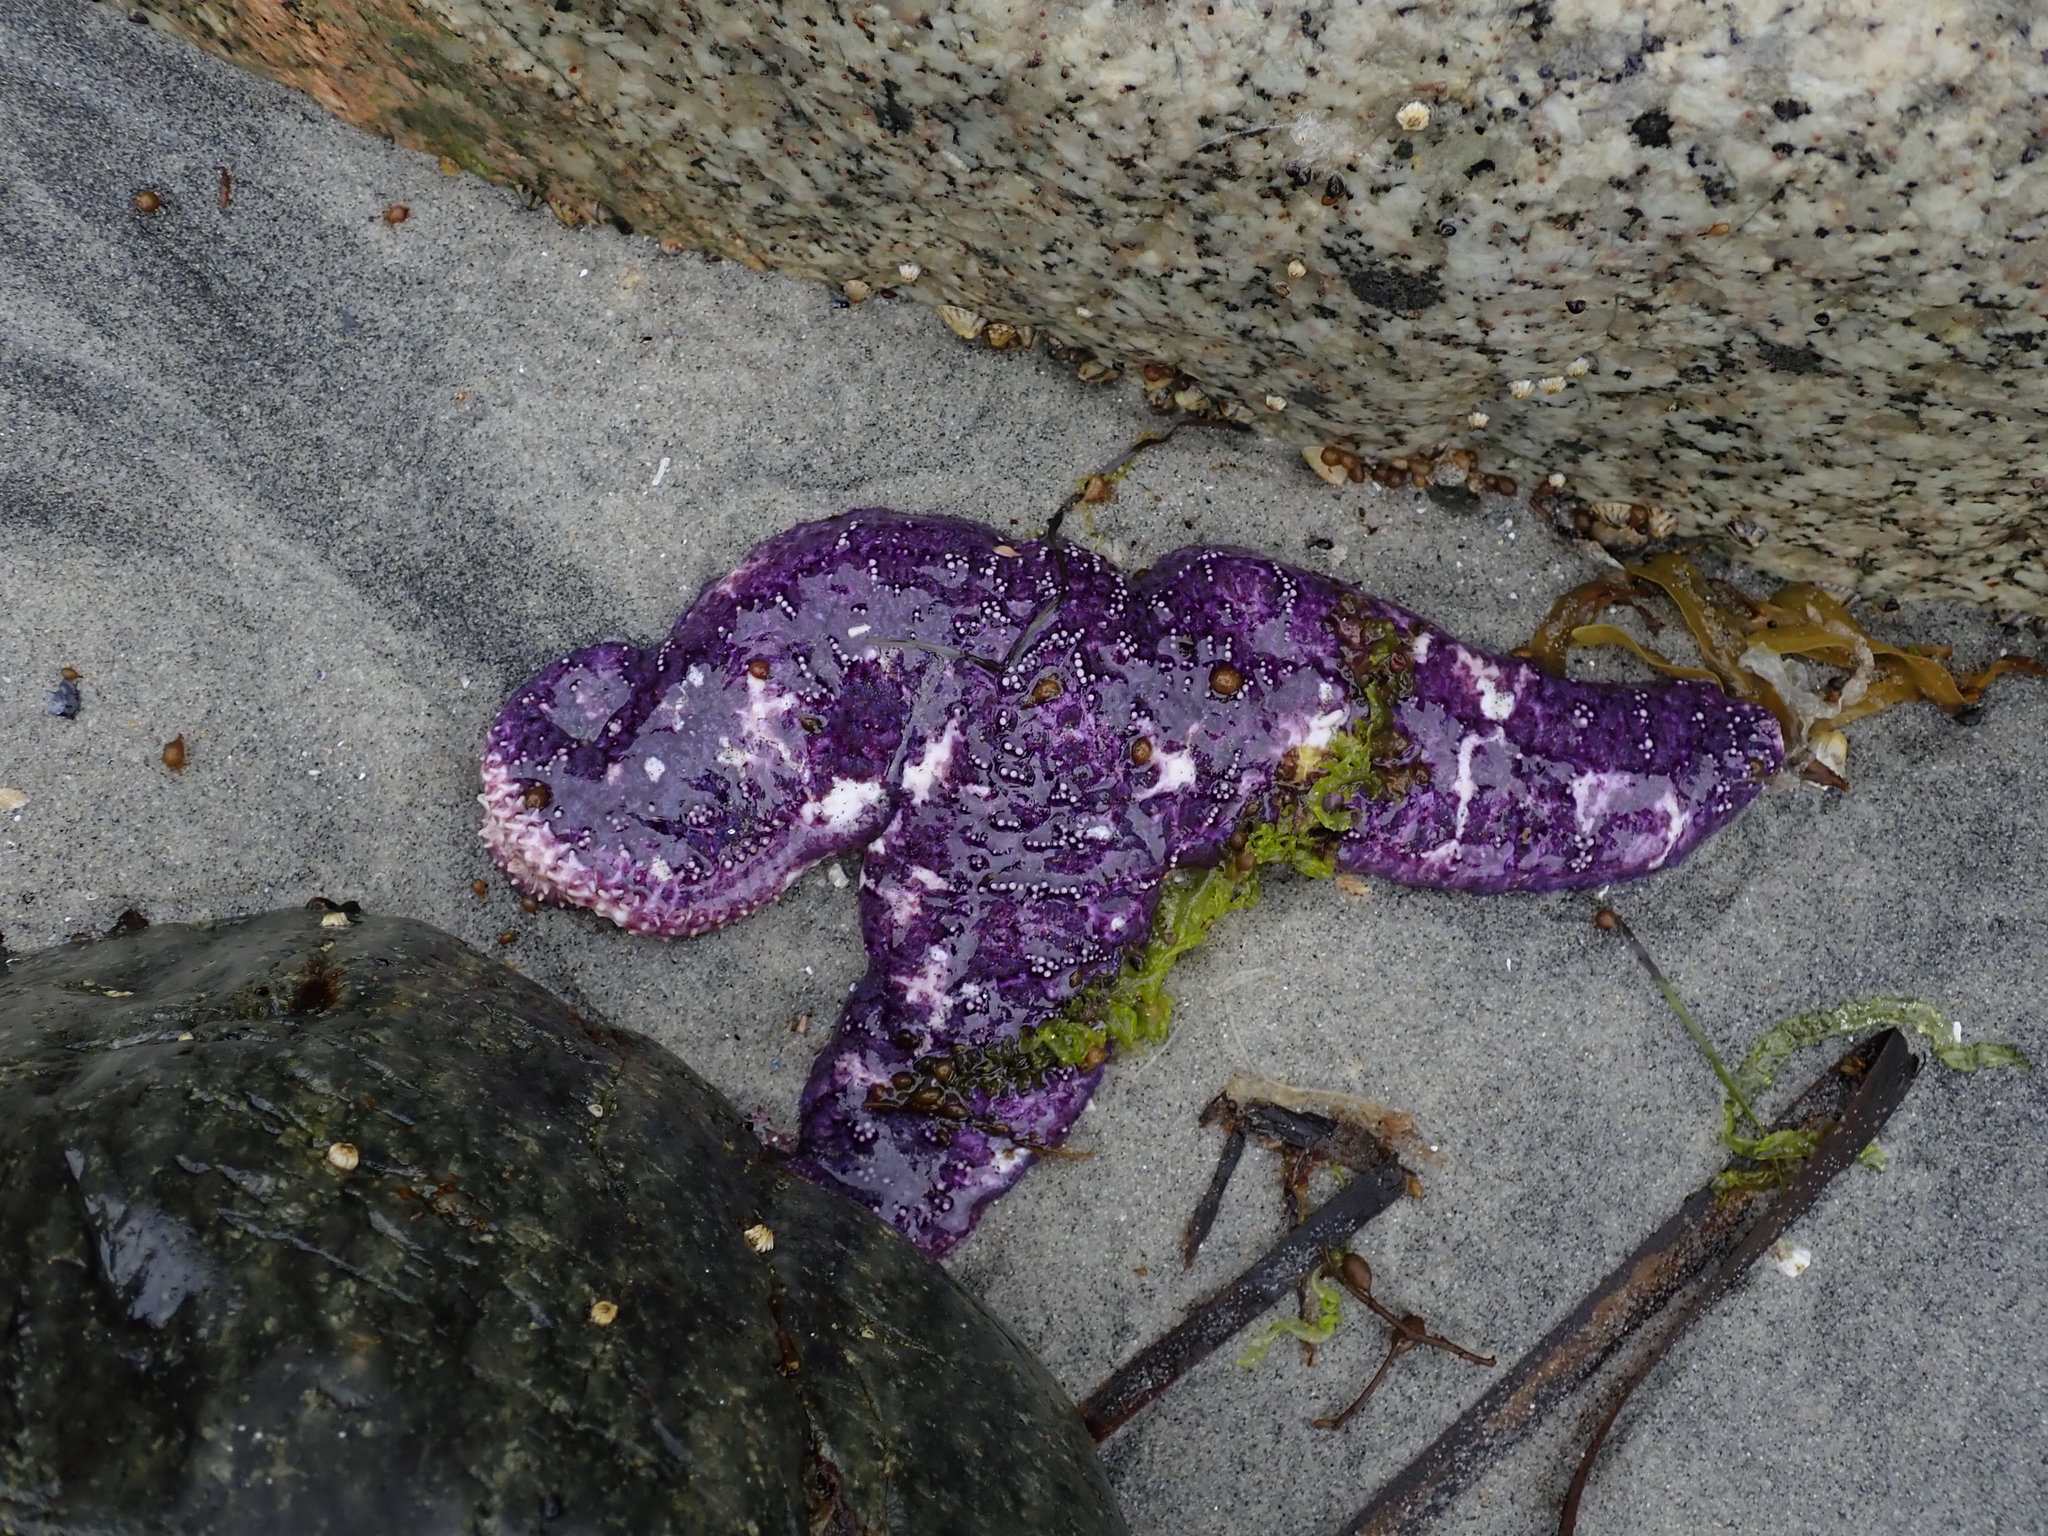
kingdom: Animalia
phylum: Echinodermata
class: Asteroidea
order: Forcipulatida
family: Asteriidae
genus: Pisaster
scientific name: Pisaster ochraceus
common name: Ochre stars
